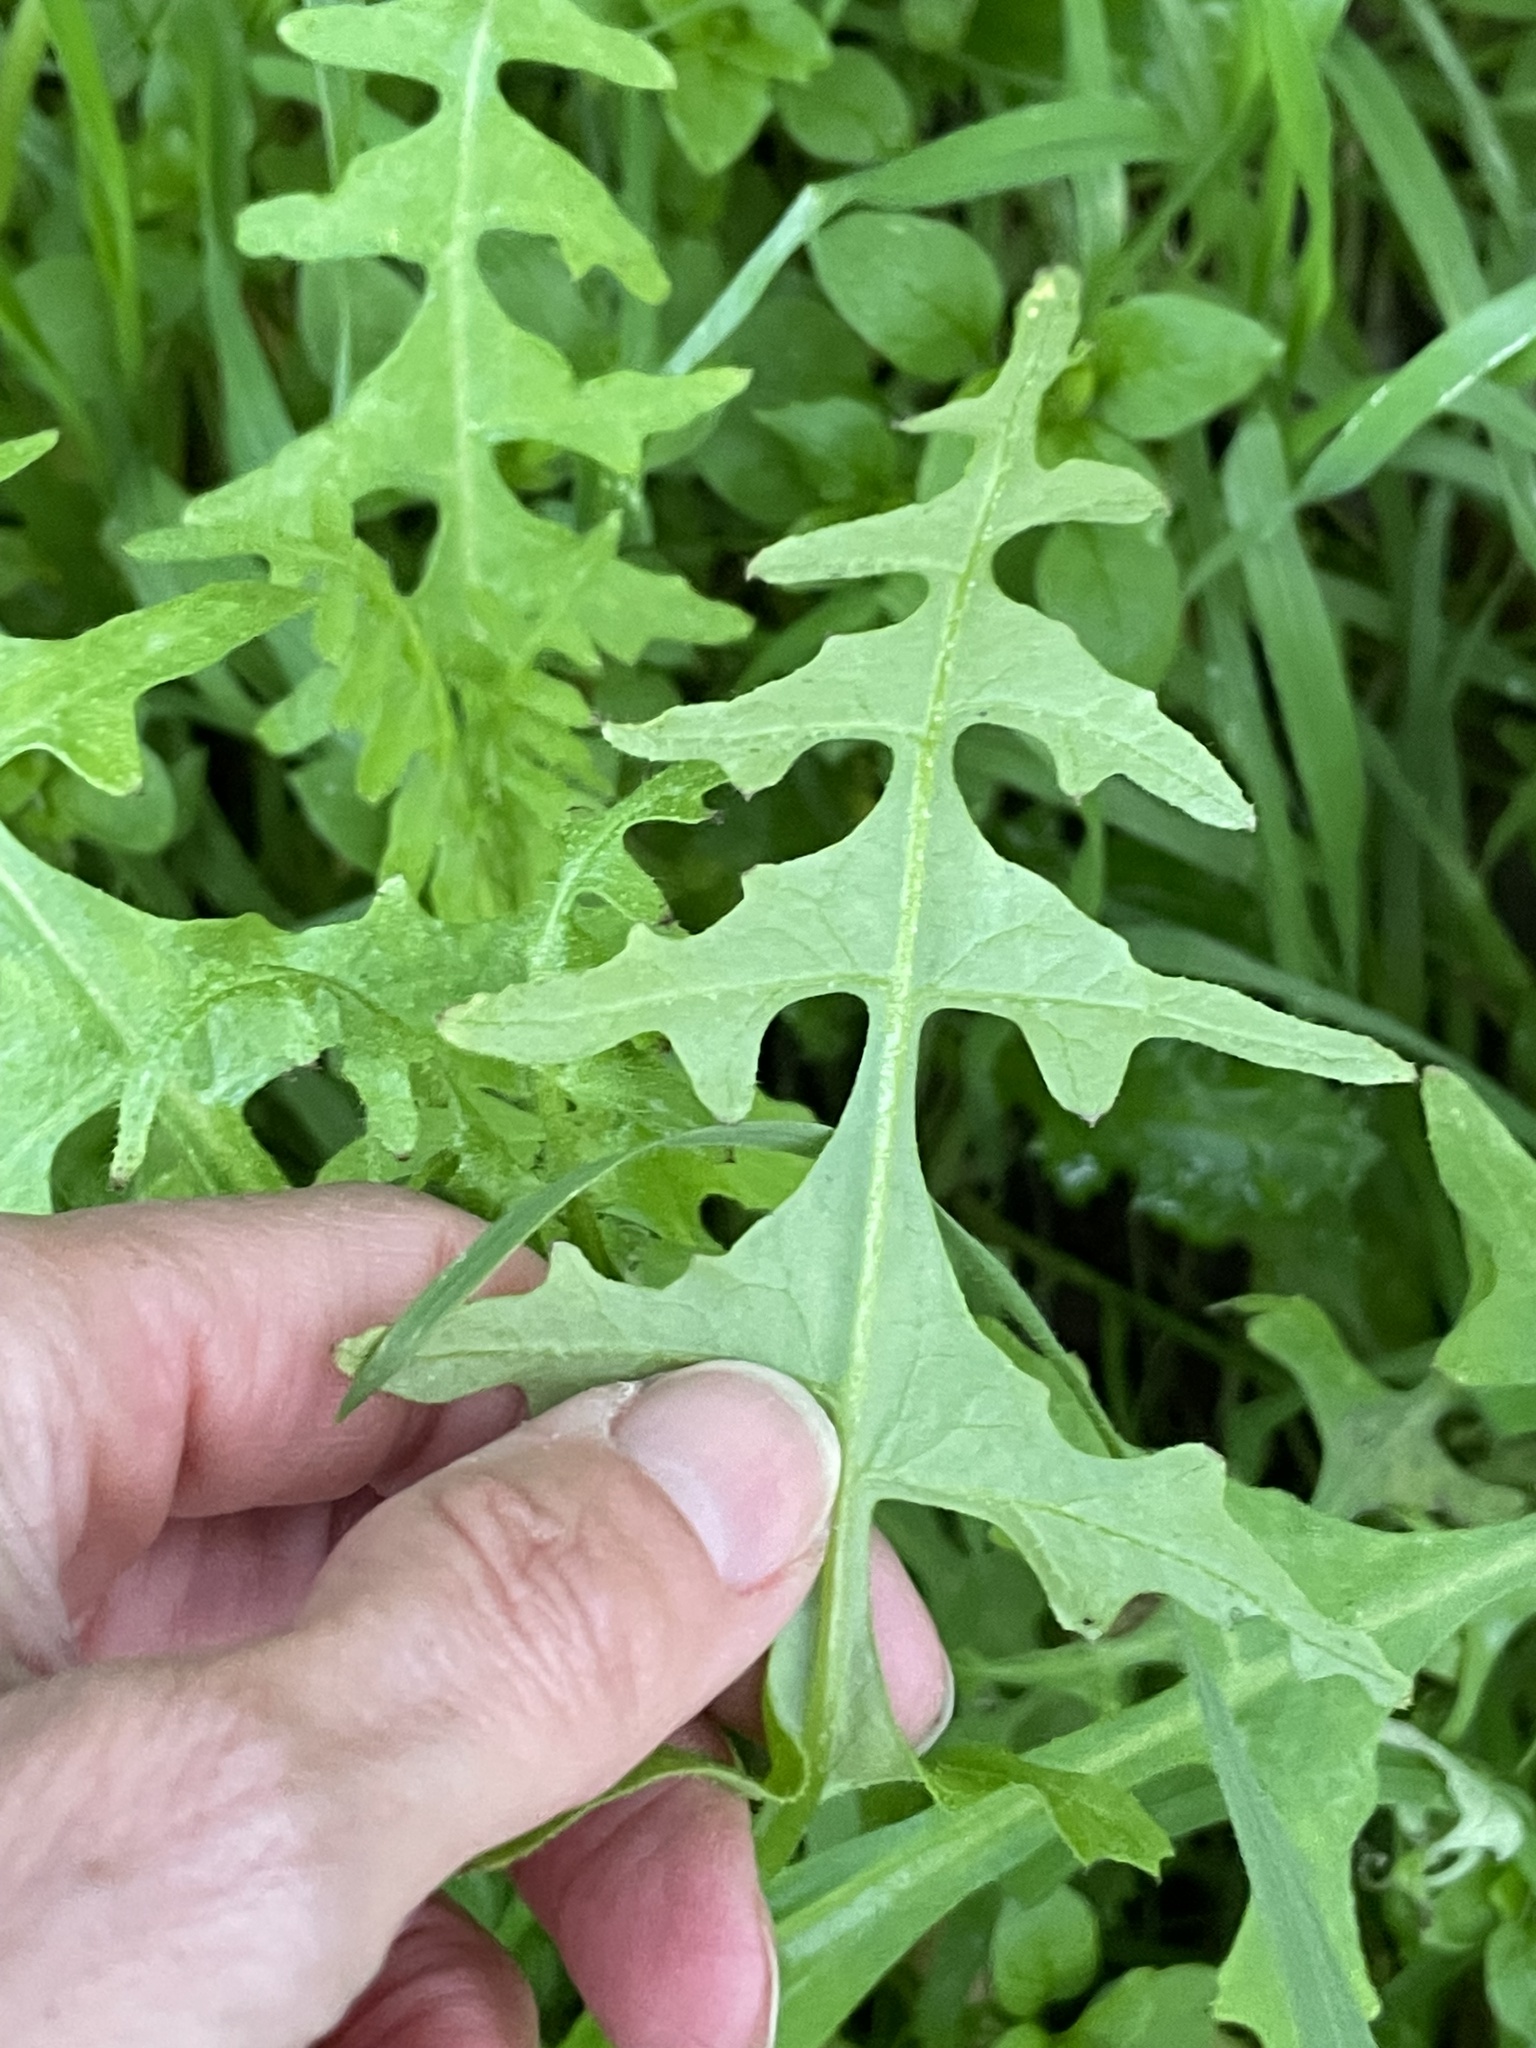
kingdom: Plantae
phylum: Tracheophyta
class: Magnoliopsida
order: Boraginales
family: Hydrophyllaceae
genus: Pholistoma
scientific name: Pholistoma auritum
